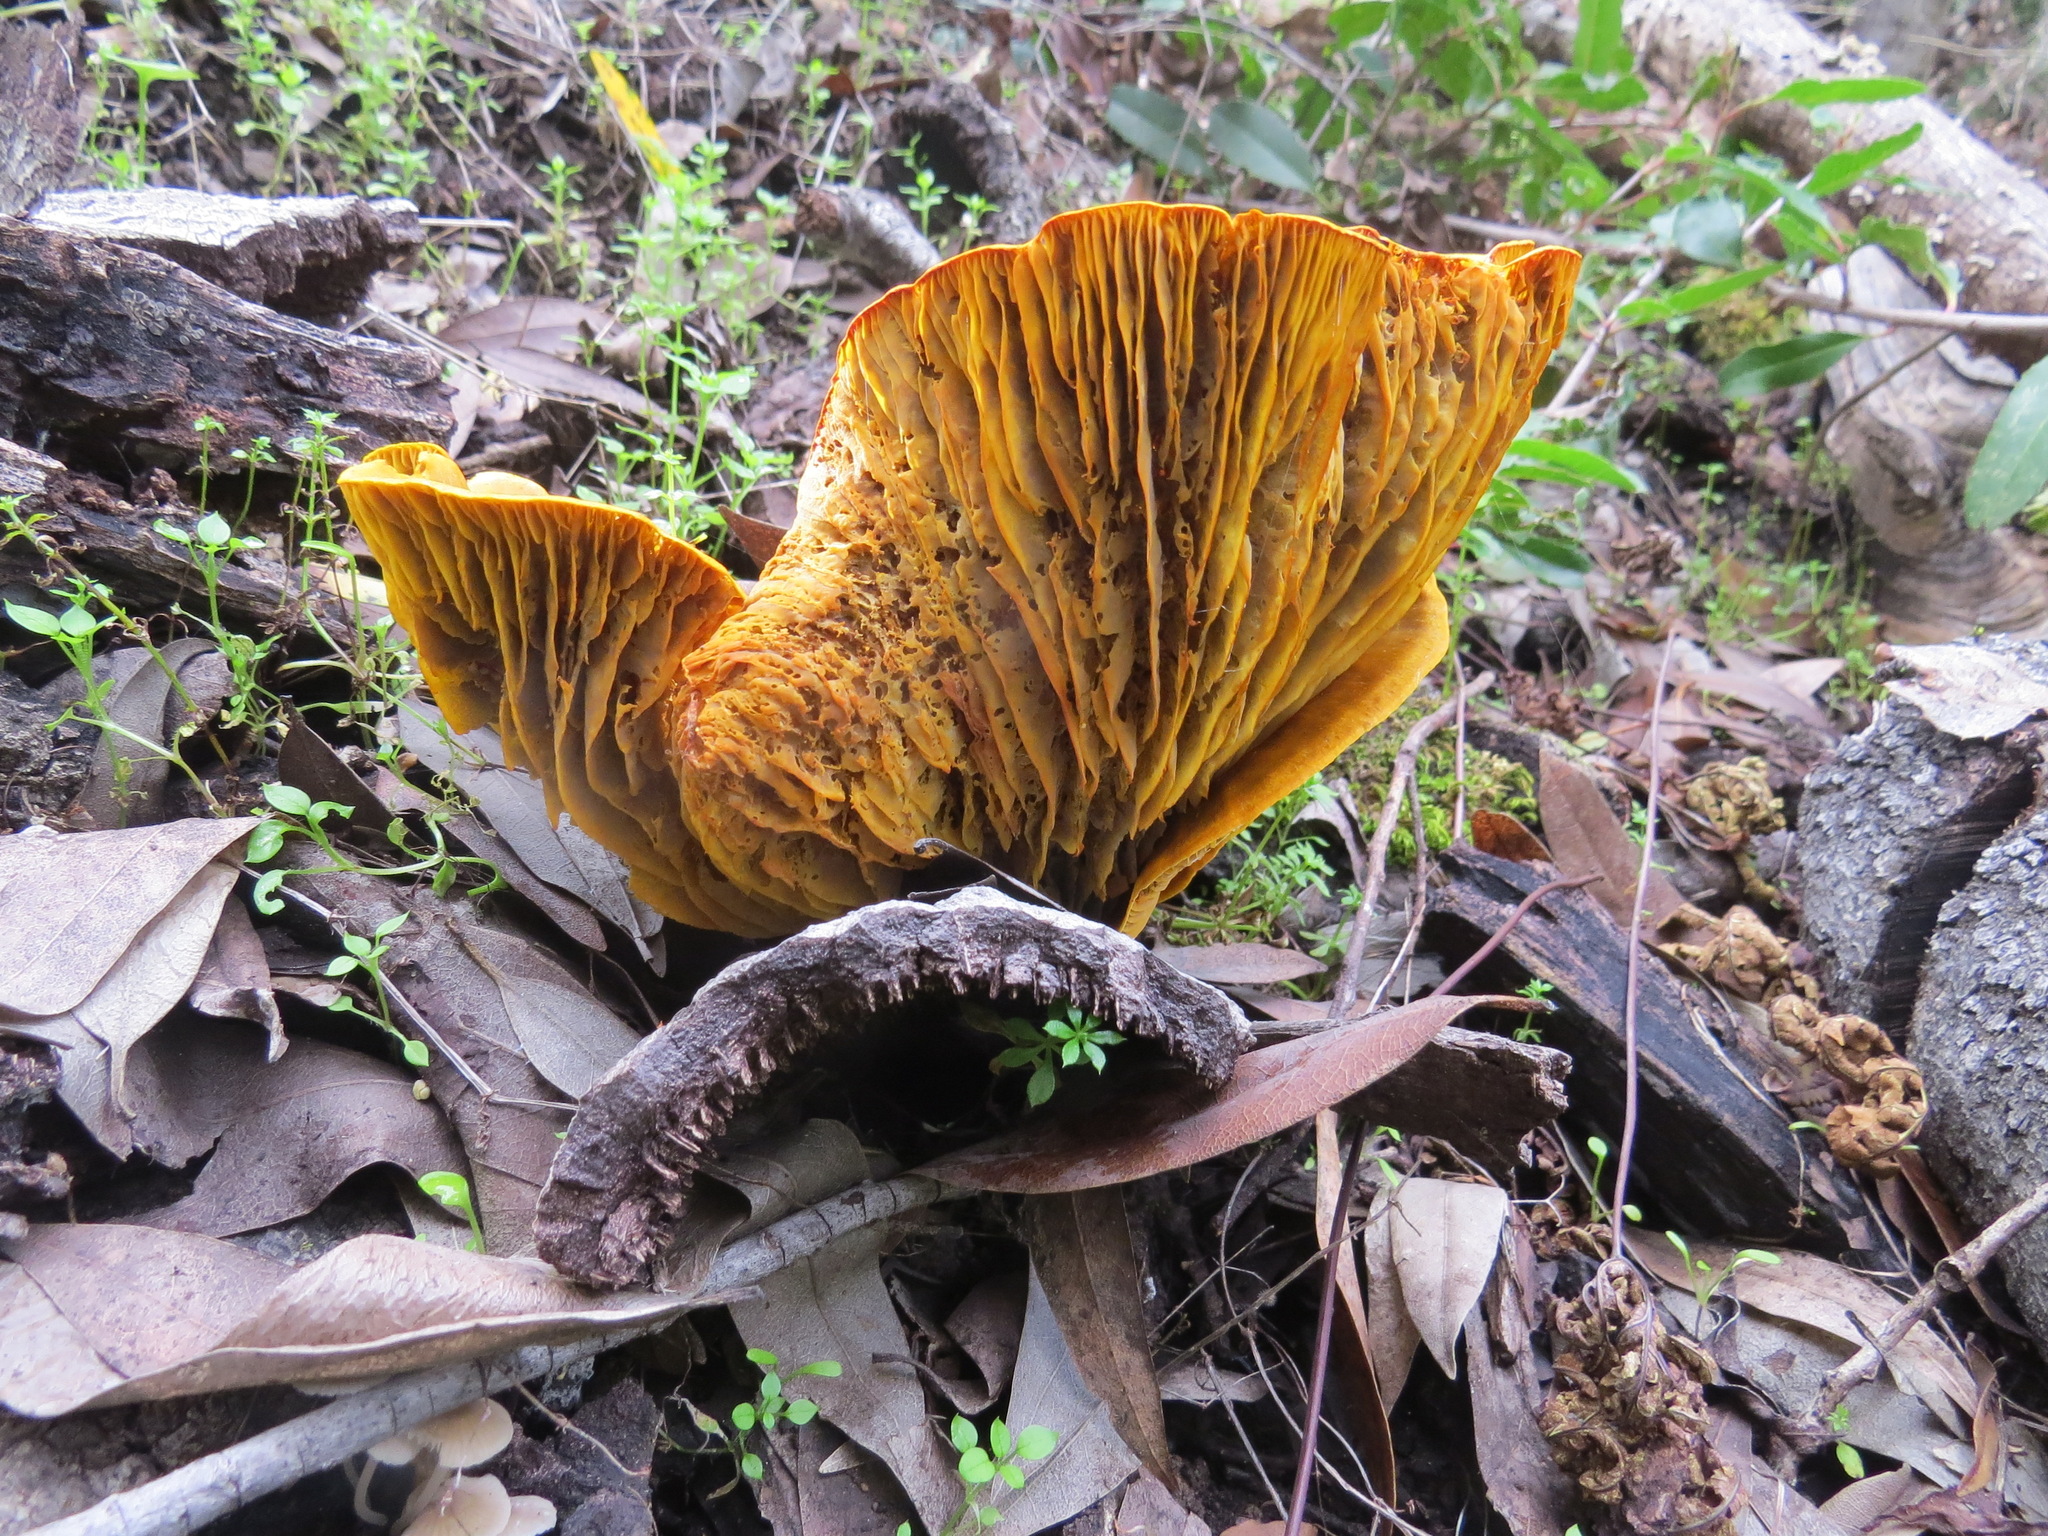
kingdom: Fungi
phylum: Basidiomycota
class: Agaricomycetes
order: Agaricales
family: Omphalotaceae
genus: Omphalotus
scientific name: Omphalotus olivascens
